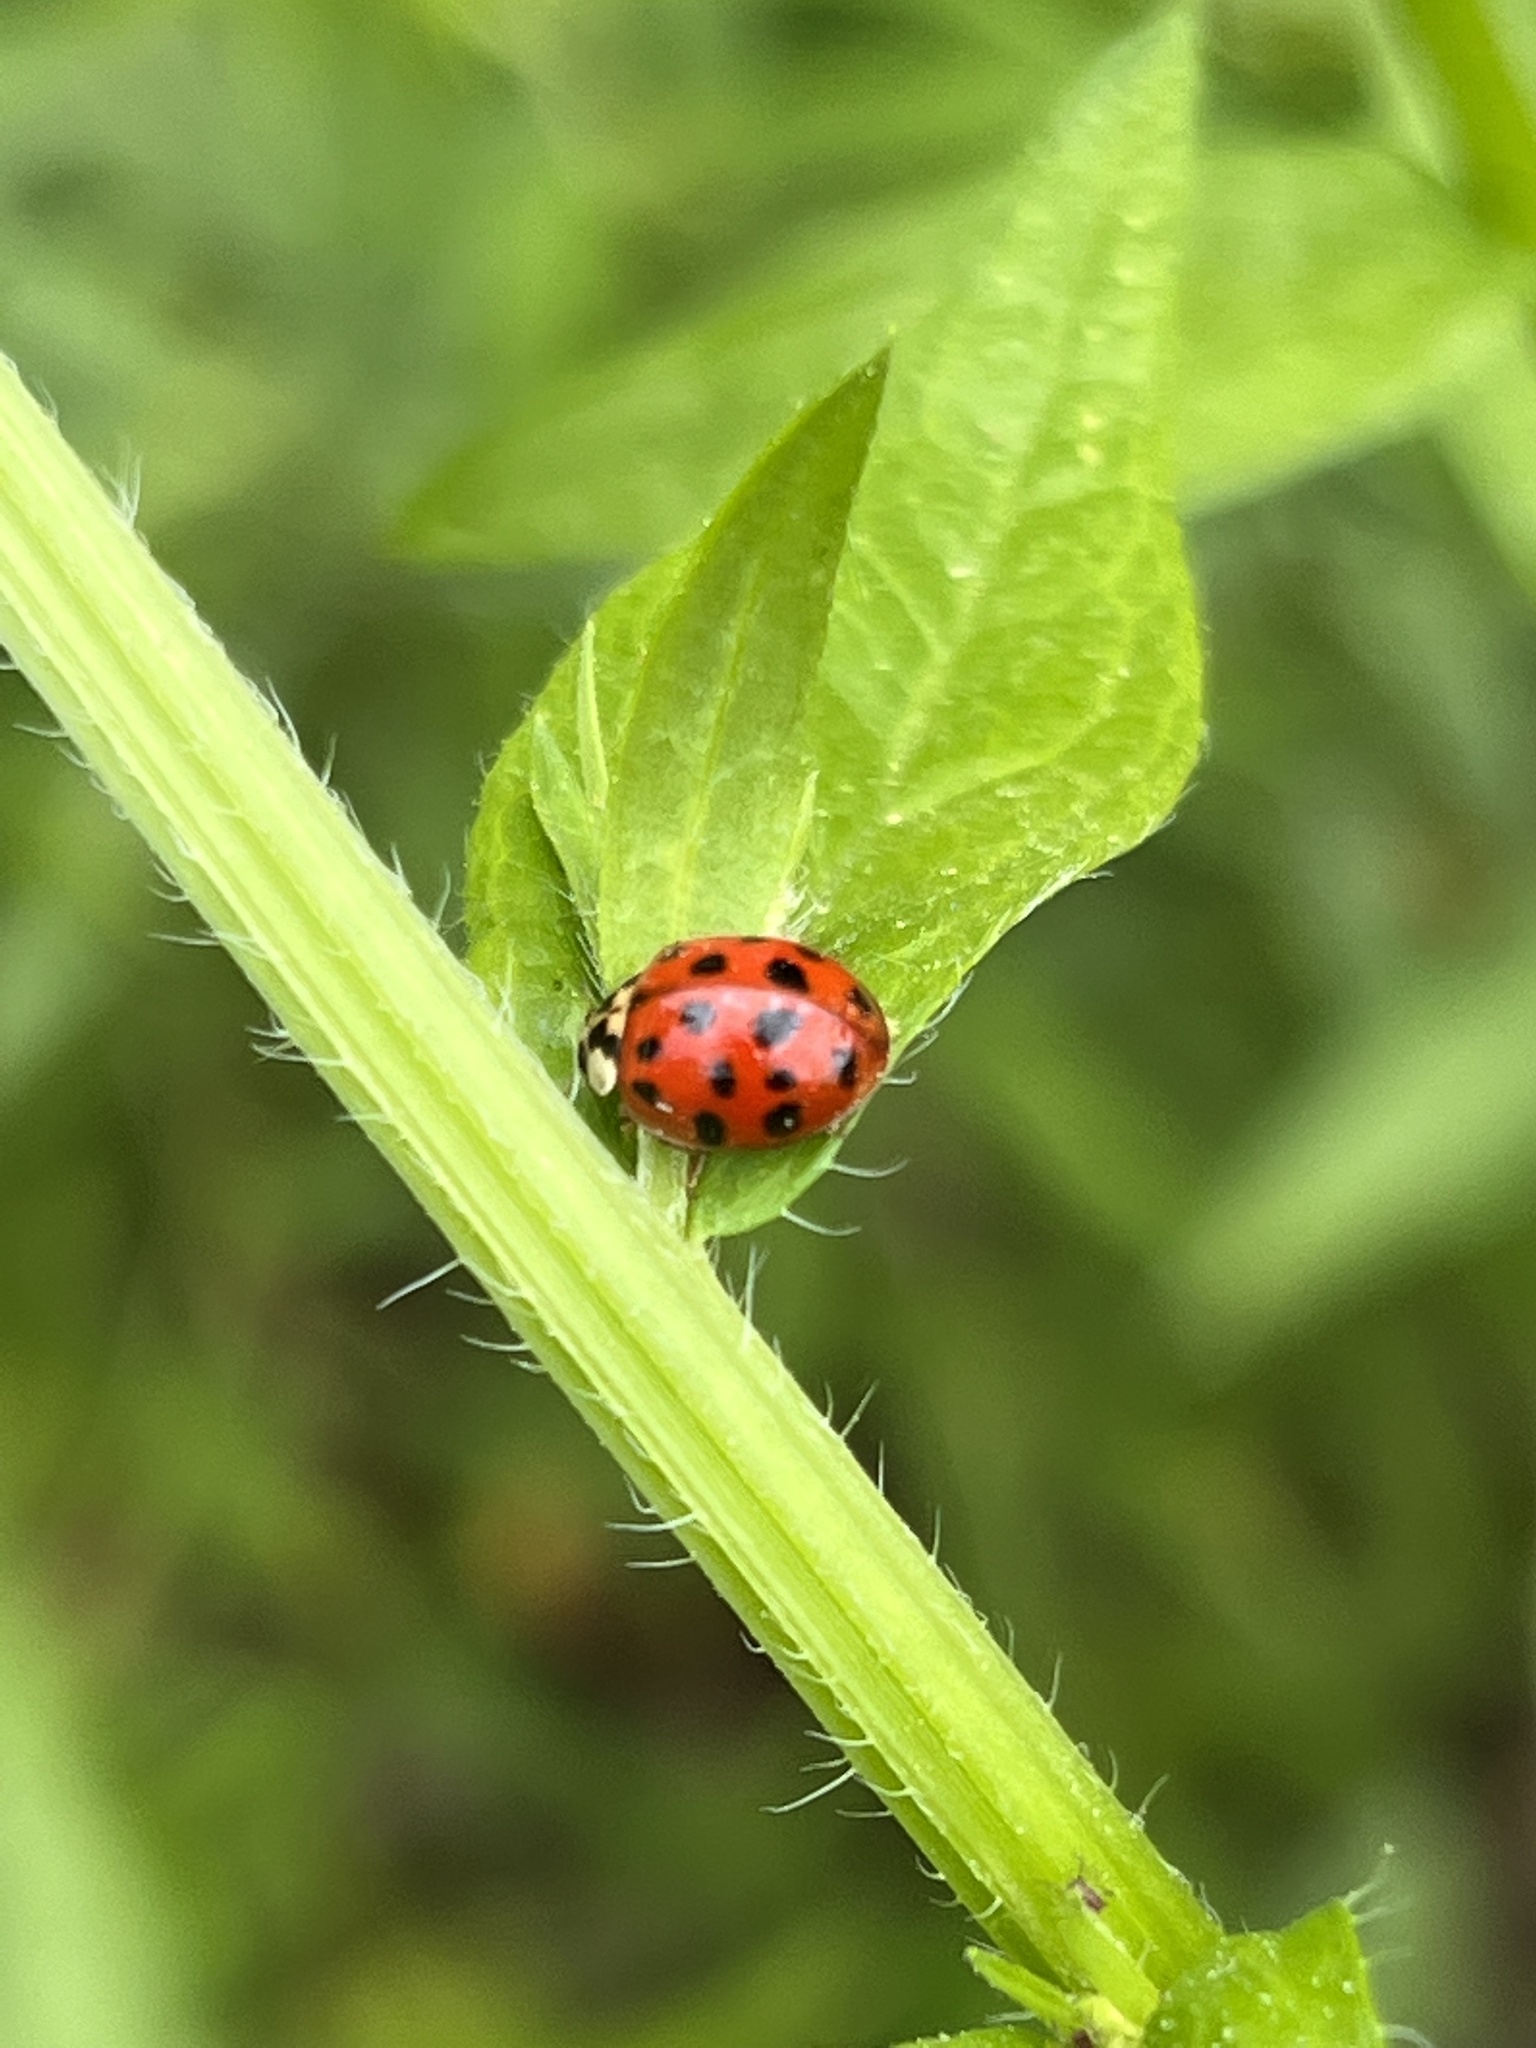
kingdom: Animalia
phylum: Arthropoda
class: Insecta
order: Coleoptera
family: Coccinellidae
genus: Harmonia
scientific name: Harmonia axyridis
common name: Harlequin ladybird
